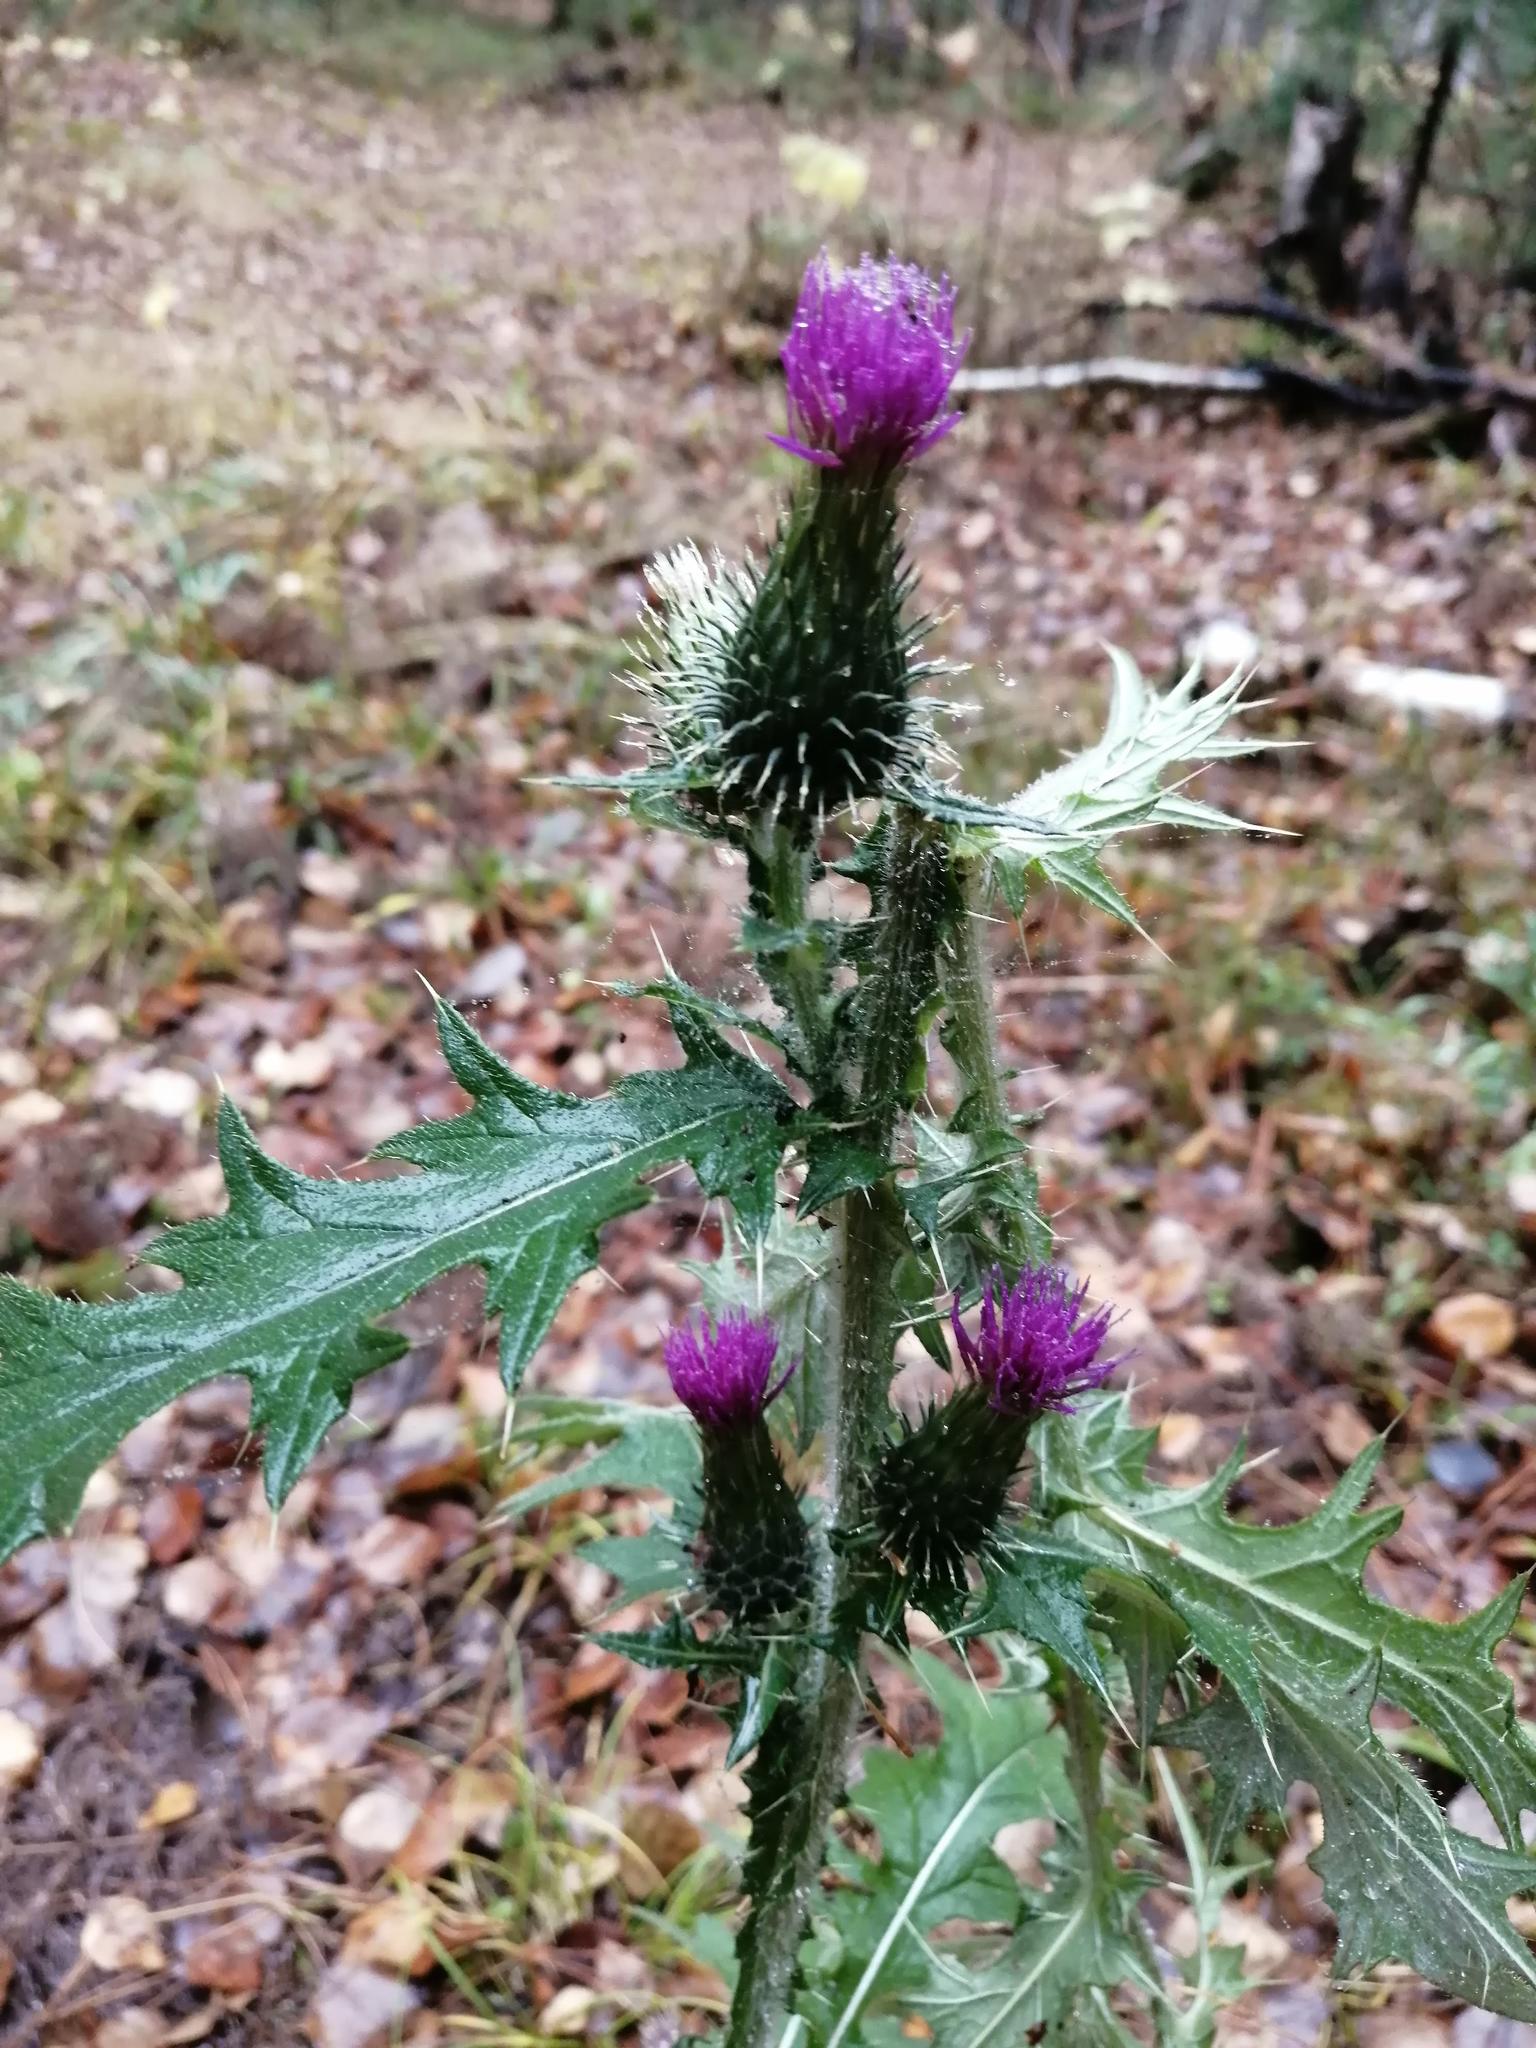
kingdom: Plantae
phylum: Tracheophyta
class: Magnoliopsida
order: Asterales
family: Asteraceae
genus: Cirsium
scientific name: Cirsium vulgare
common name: Bull thistle
